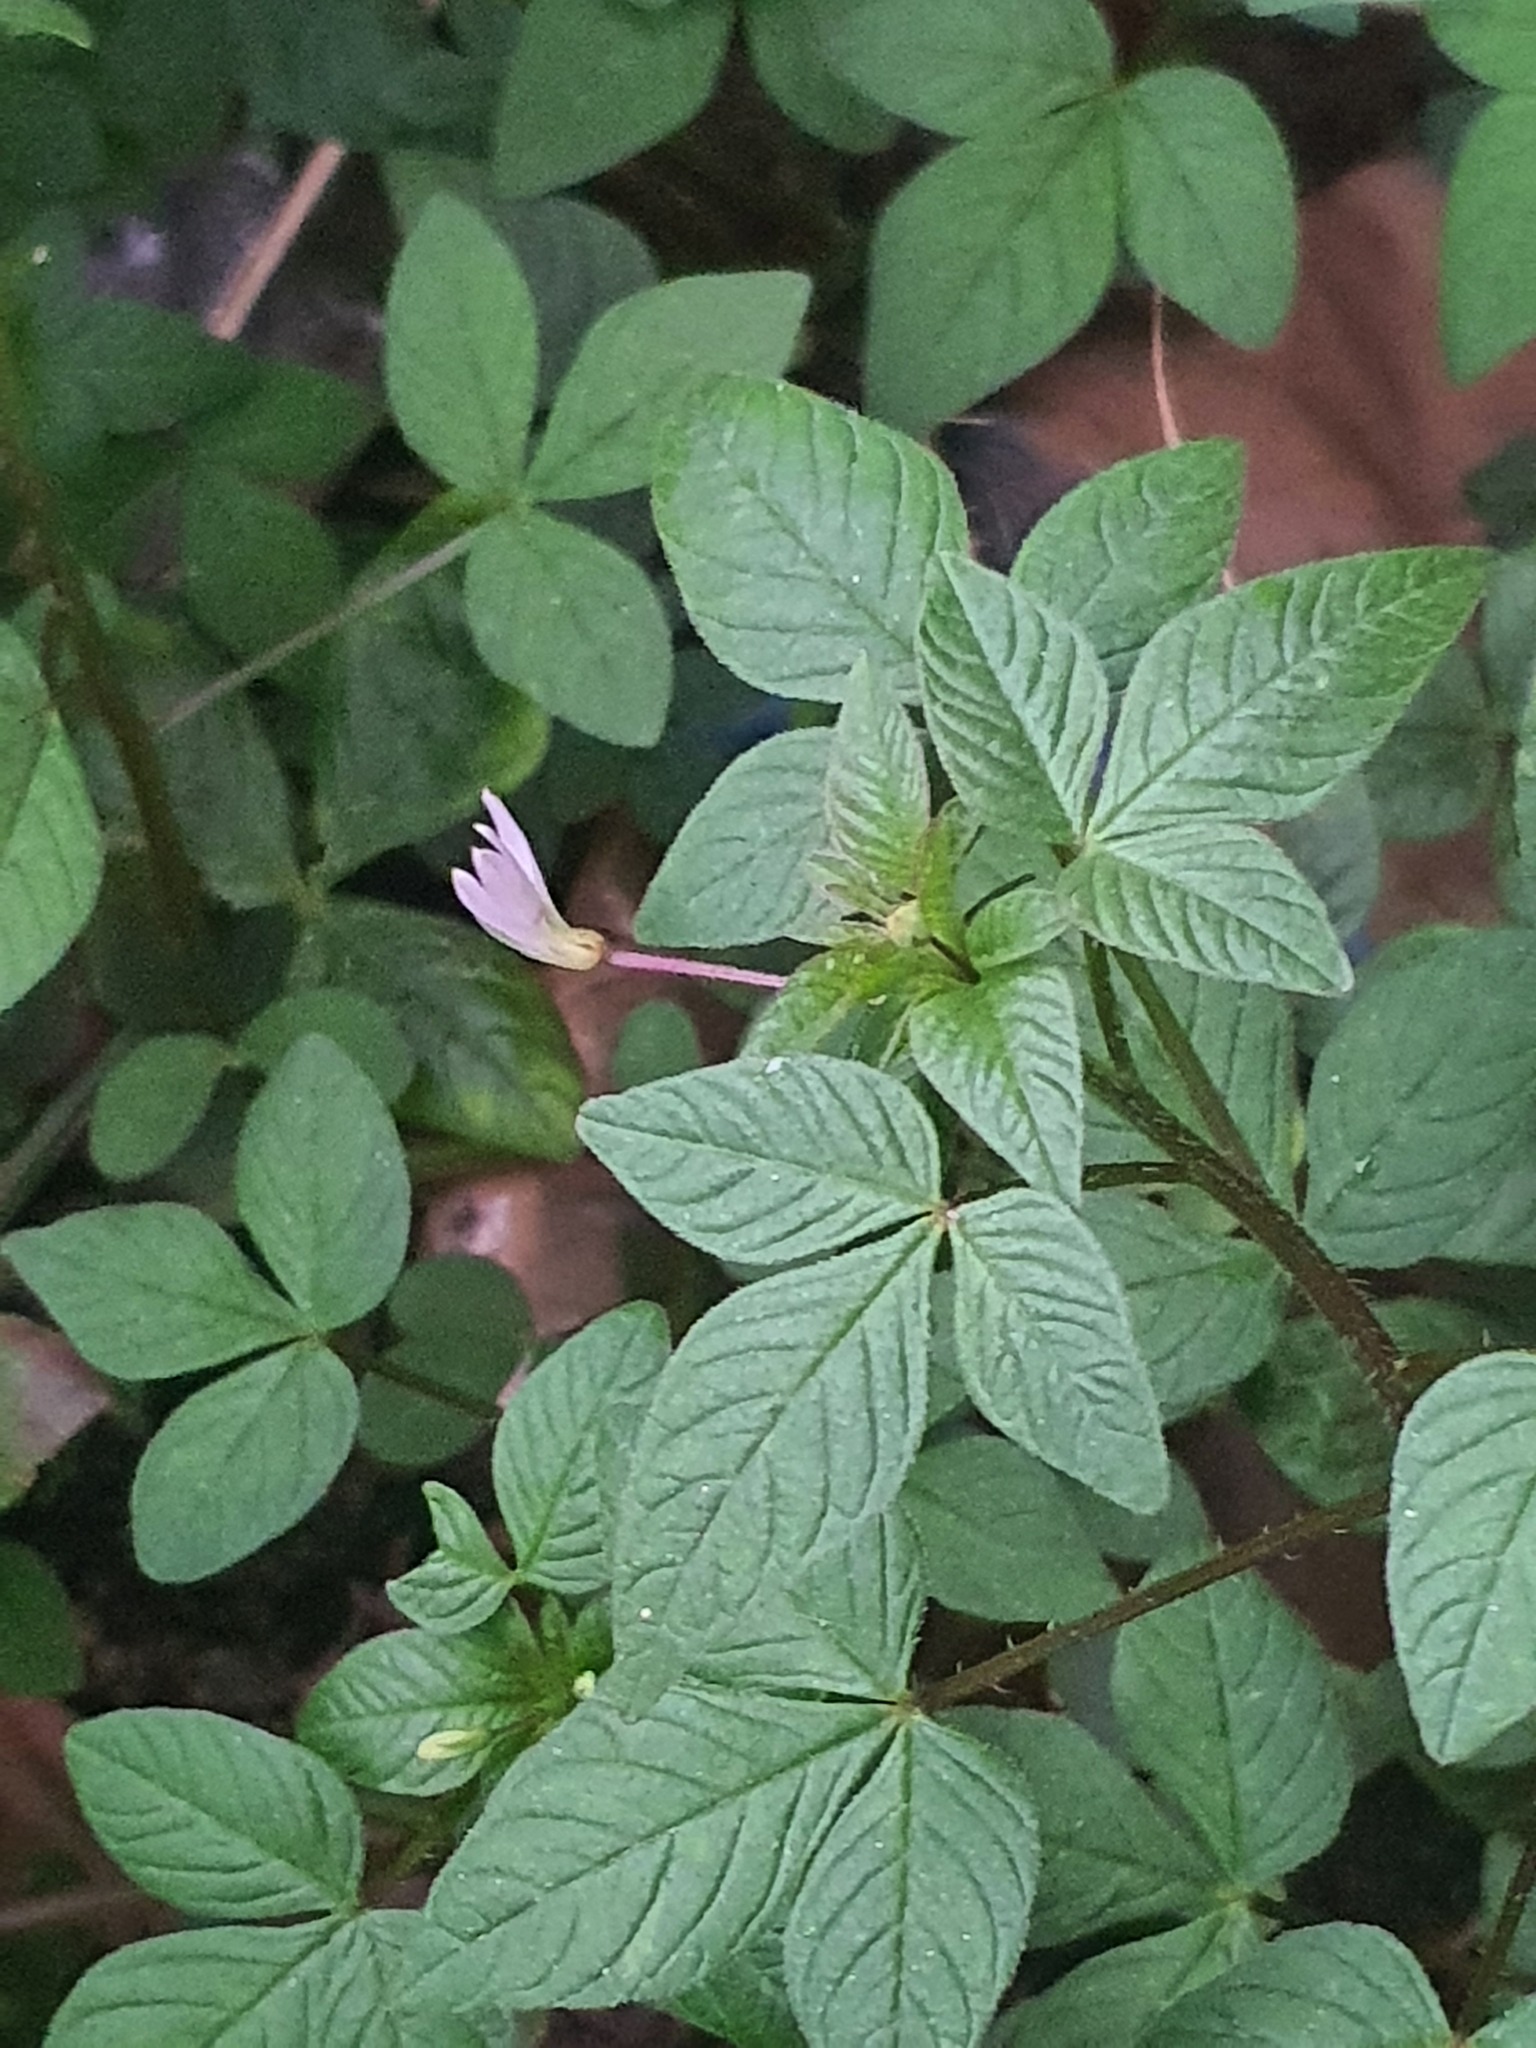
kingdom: Plantae
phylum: Tracheophyta
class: Magnoliopsida
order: Brassicales
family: Cleomaceae
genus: Sieruela
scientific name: Sieruela rutidosperma
